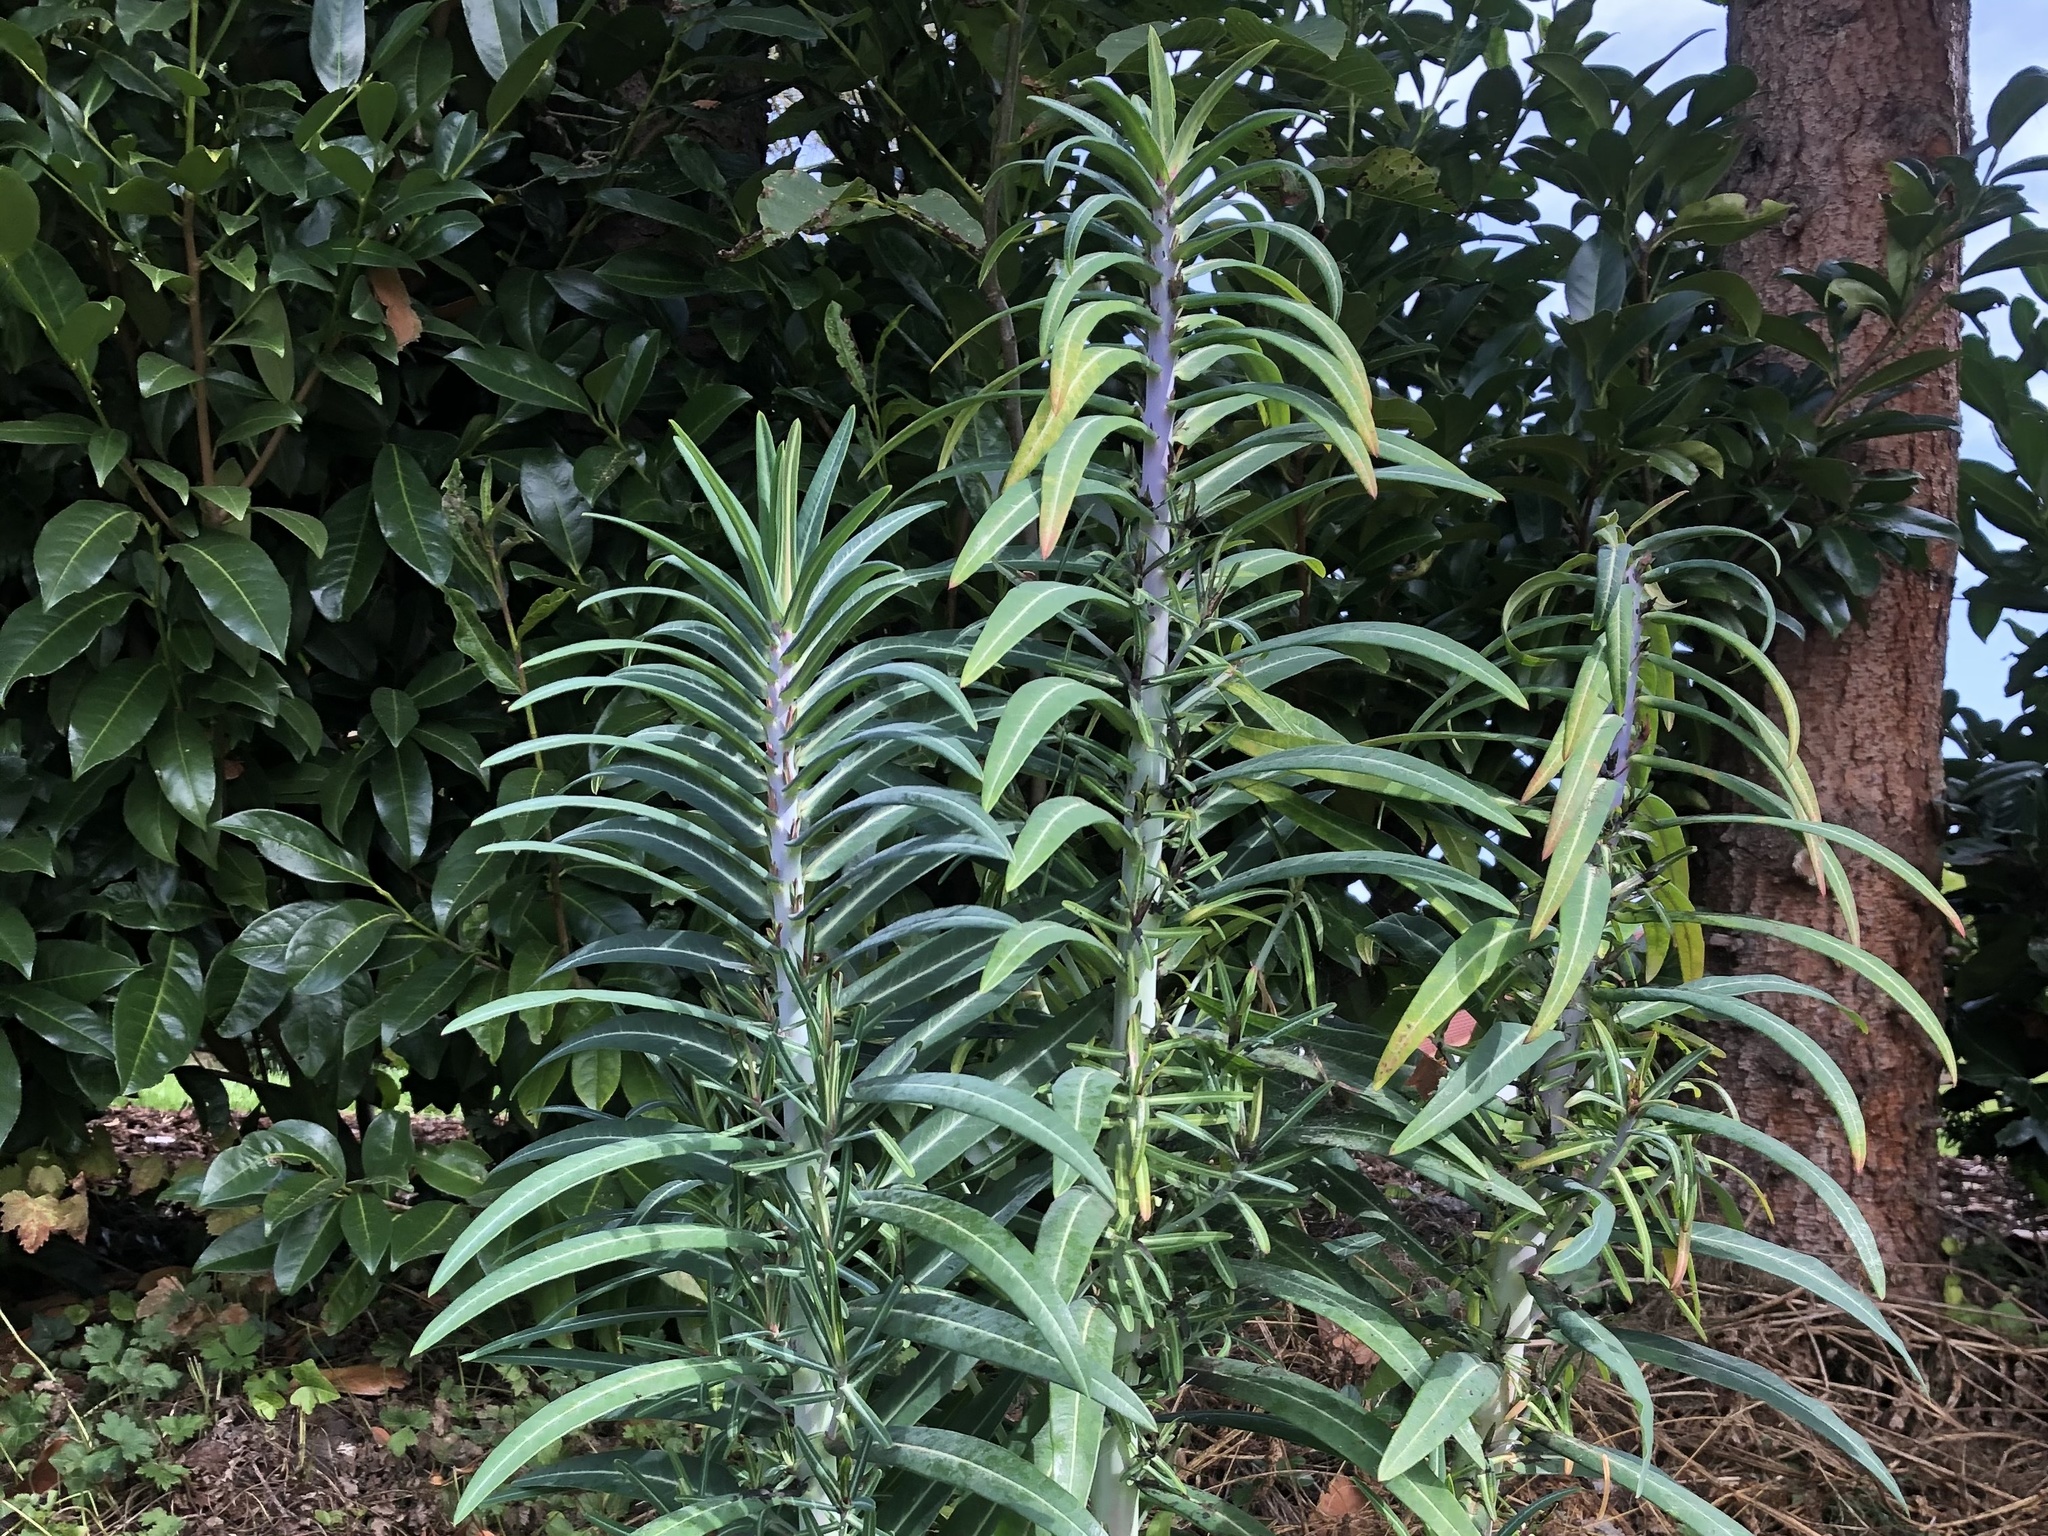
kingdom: Plantae
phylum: Tracheophyta
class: Magnoliopsida
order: Malpighiales
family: Euphorbiaceae
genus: Euphorbia
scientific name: Euphorbia lathyris
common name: Caper spurge
